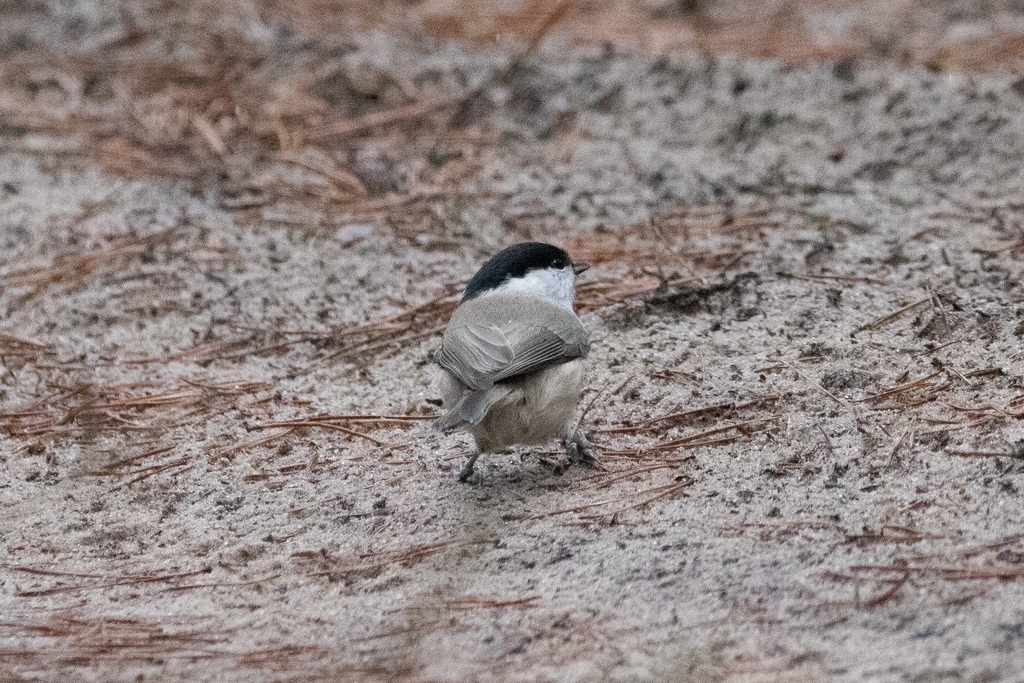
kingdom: Animalia
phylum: Chordata
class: Aves
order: Passeriformes
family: Paridae
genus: Poecile
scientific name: Poecile palustris
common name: Marsh tit
